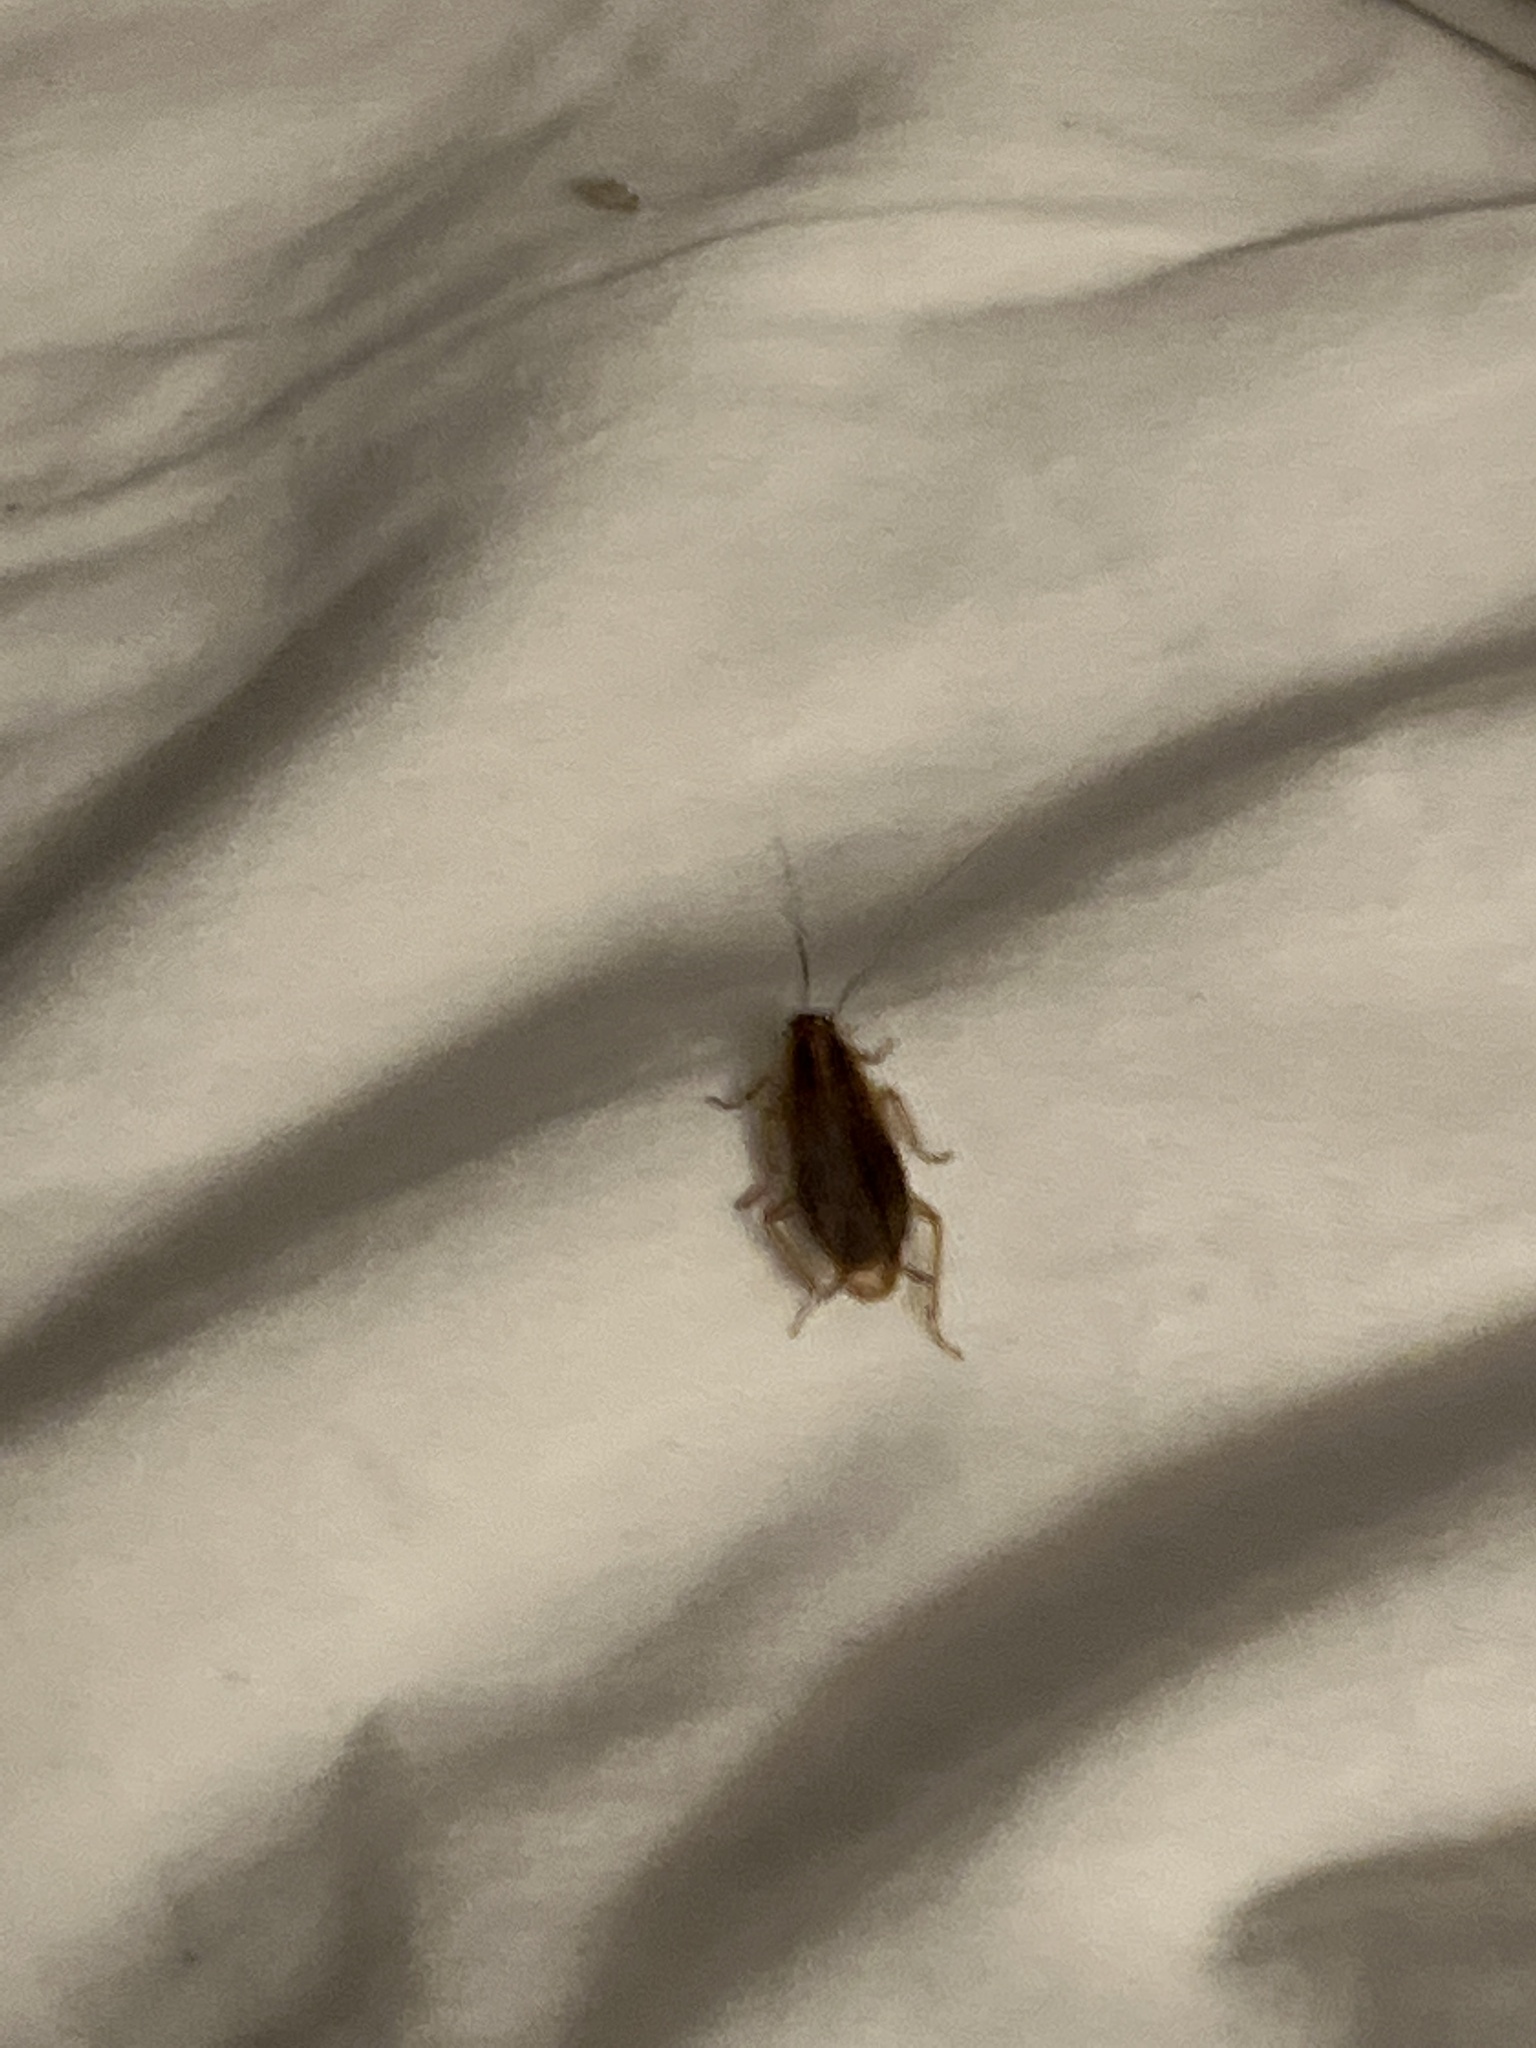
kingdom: Animalia
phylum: Arthropoda
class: Insecta
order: Blattodea
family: Ectobiidae
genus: Blattella
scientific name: Blattella germanica
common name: German cockroach
